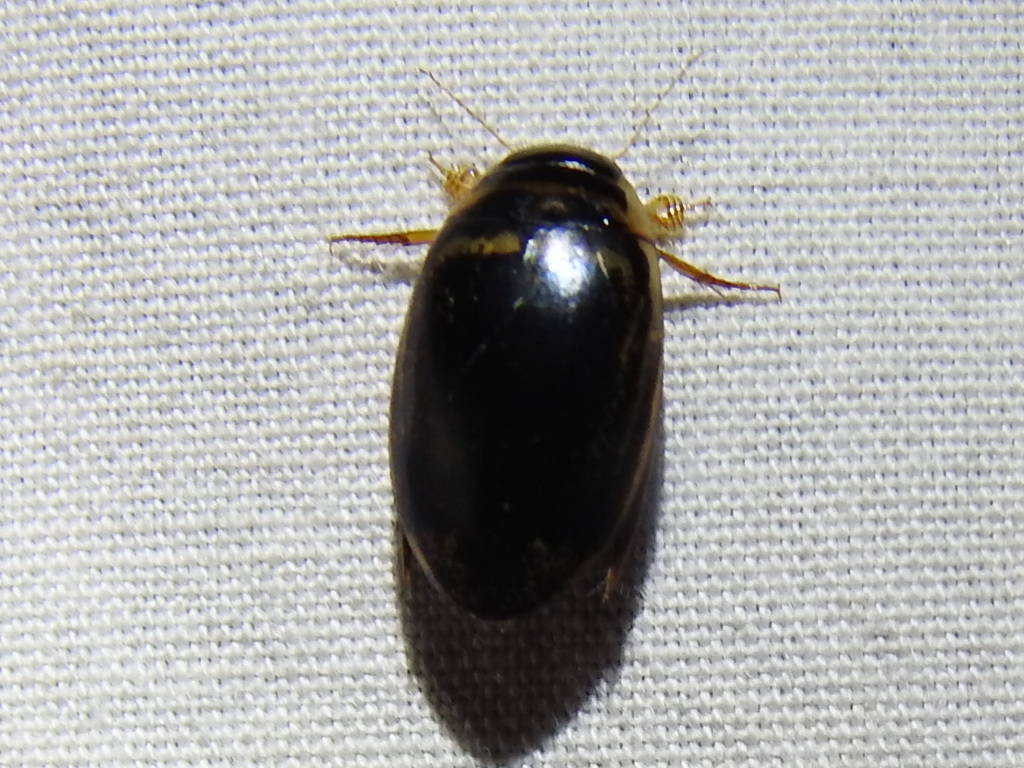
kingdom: Animalia
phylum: Arthropoda
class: Insecta
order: Coleoptera
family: Dytiscidae
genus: Thermonectus
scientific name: Thermonectus basillaris
